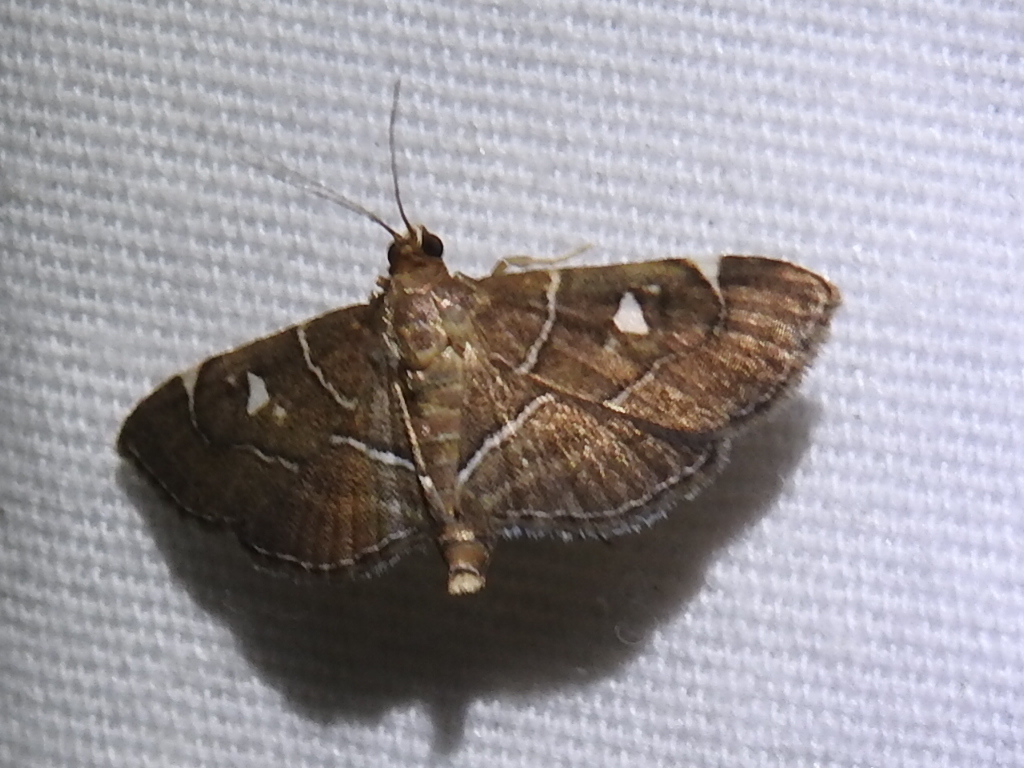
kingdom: Animalia
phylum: Arthropoda
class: Insecta
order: Lepidoptera
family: Crambidae
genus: Lamprosema
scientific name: Lamprosema victoriae
